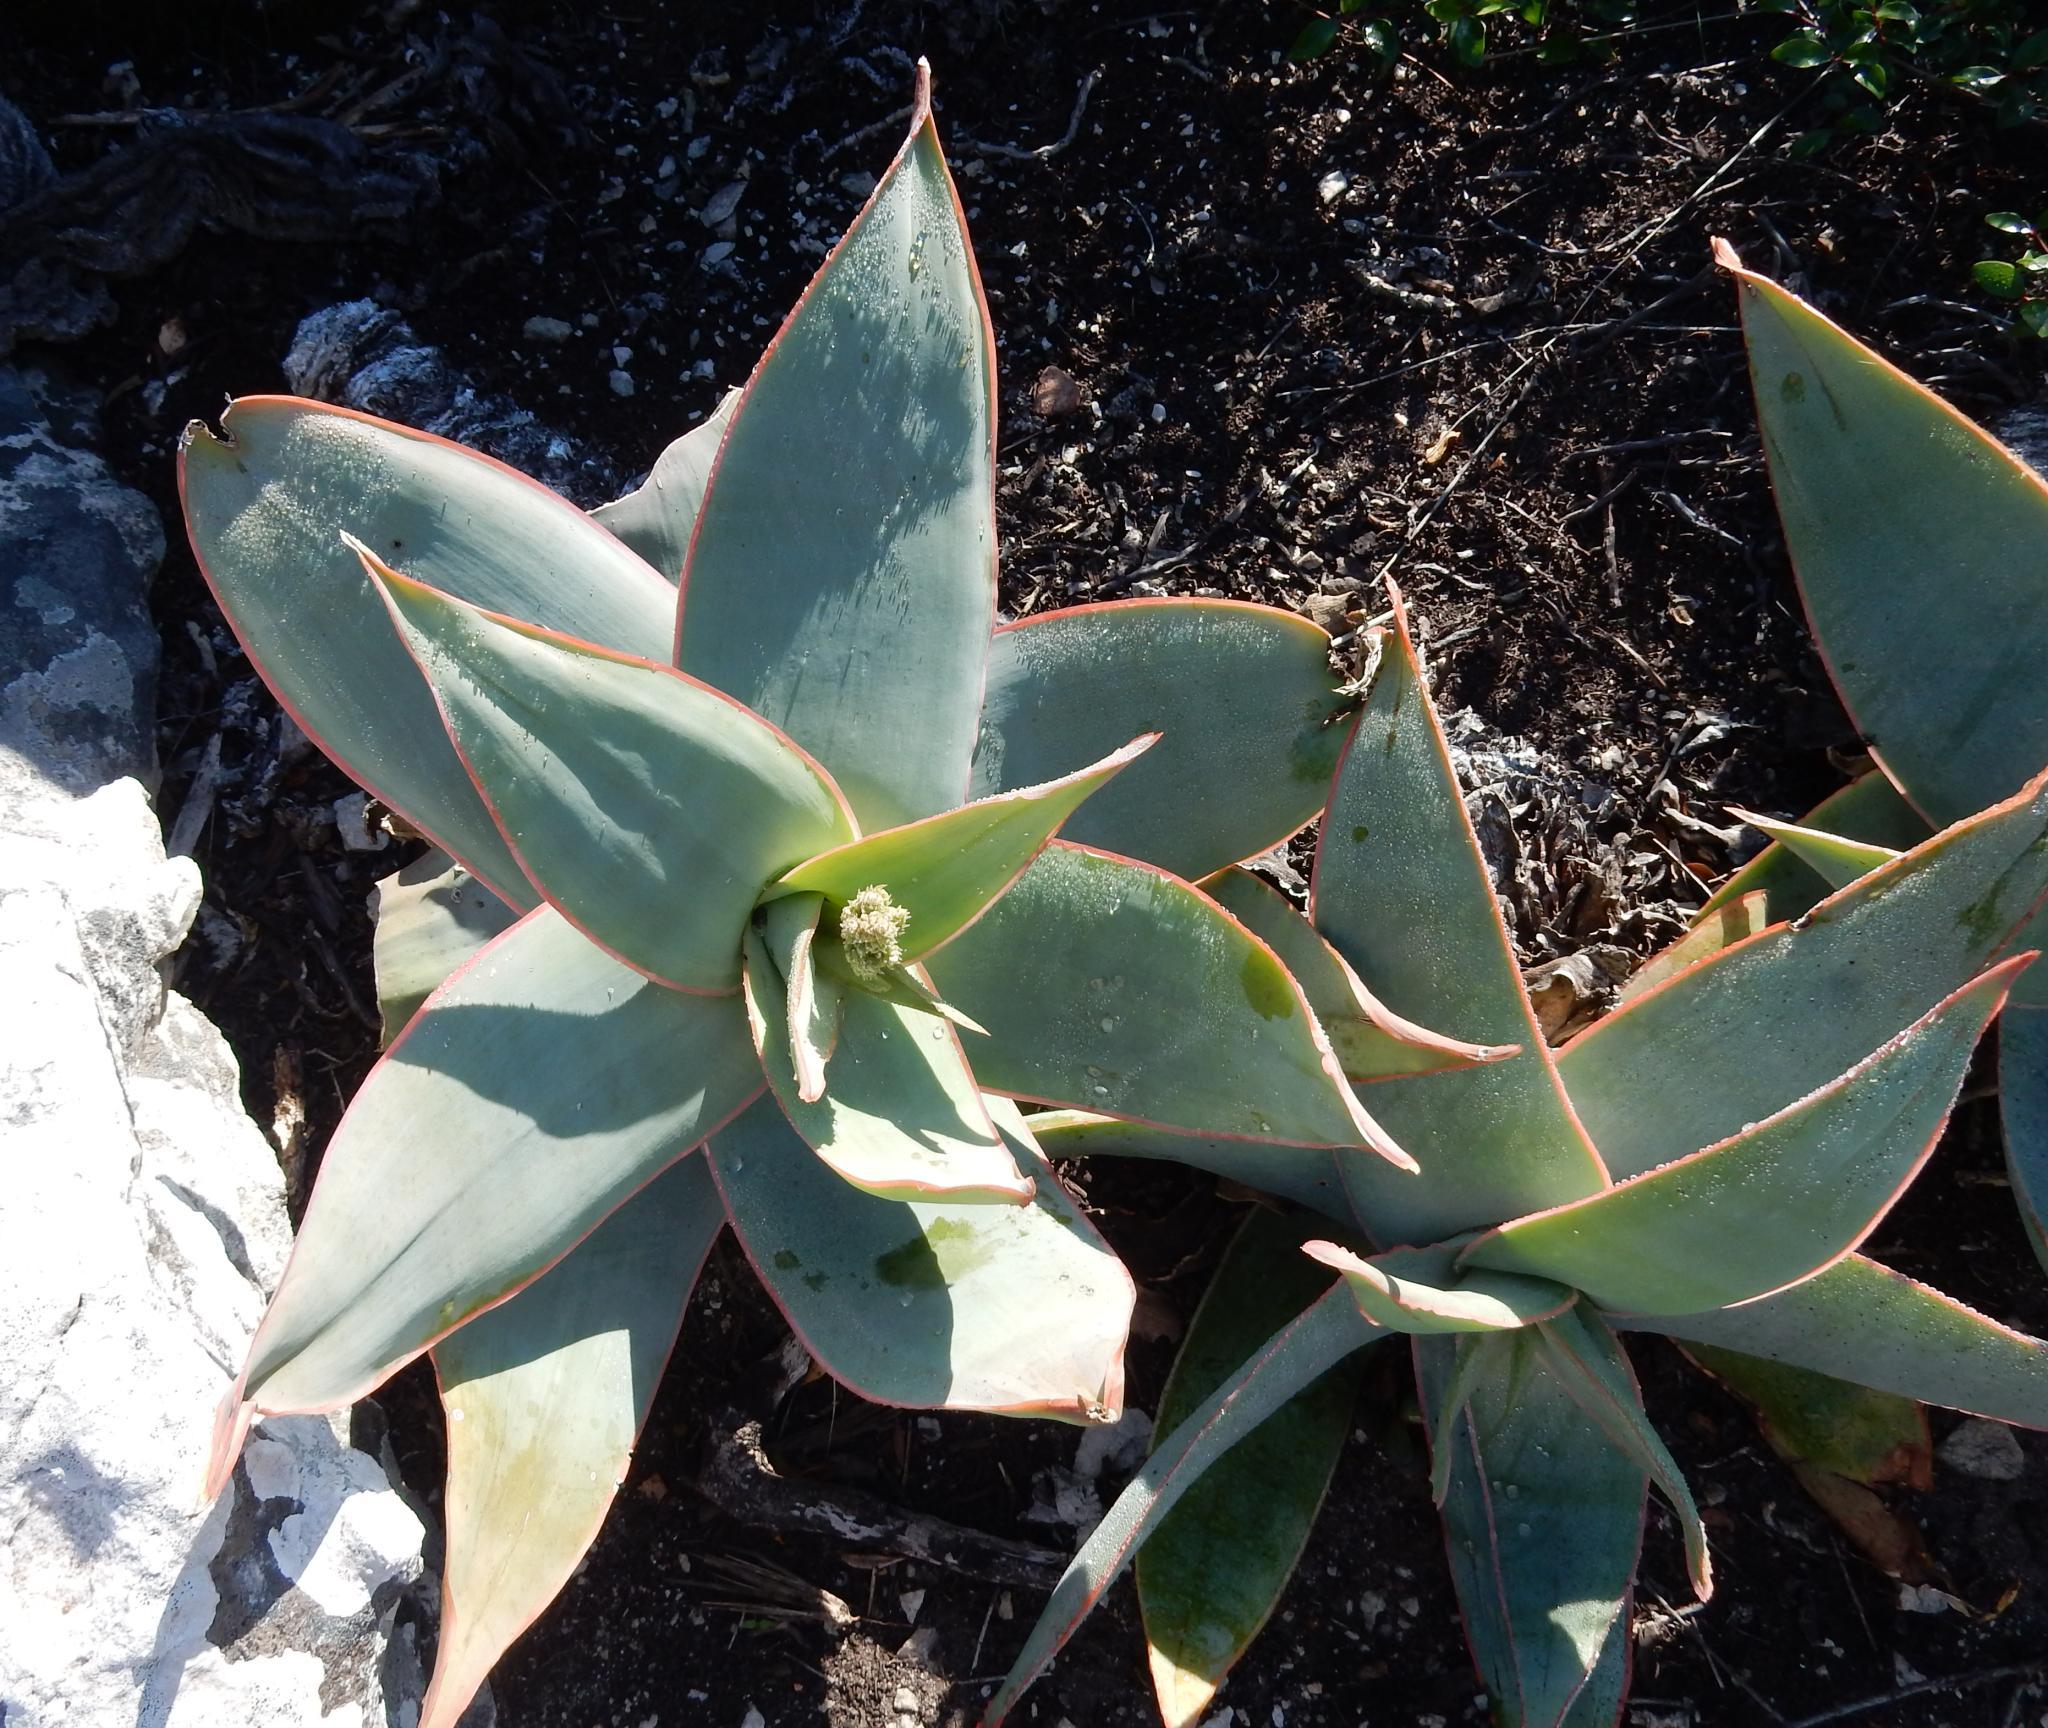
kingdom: Plantae
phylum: Tracheophyta
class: Liliopsida
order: Asparagales
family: Asphodelaceae
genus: Aloe
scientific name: Aloe striata
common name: Coral aloe
